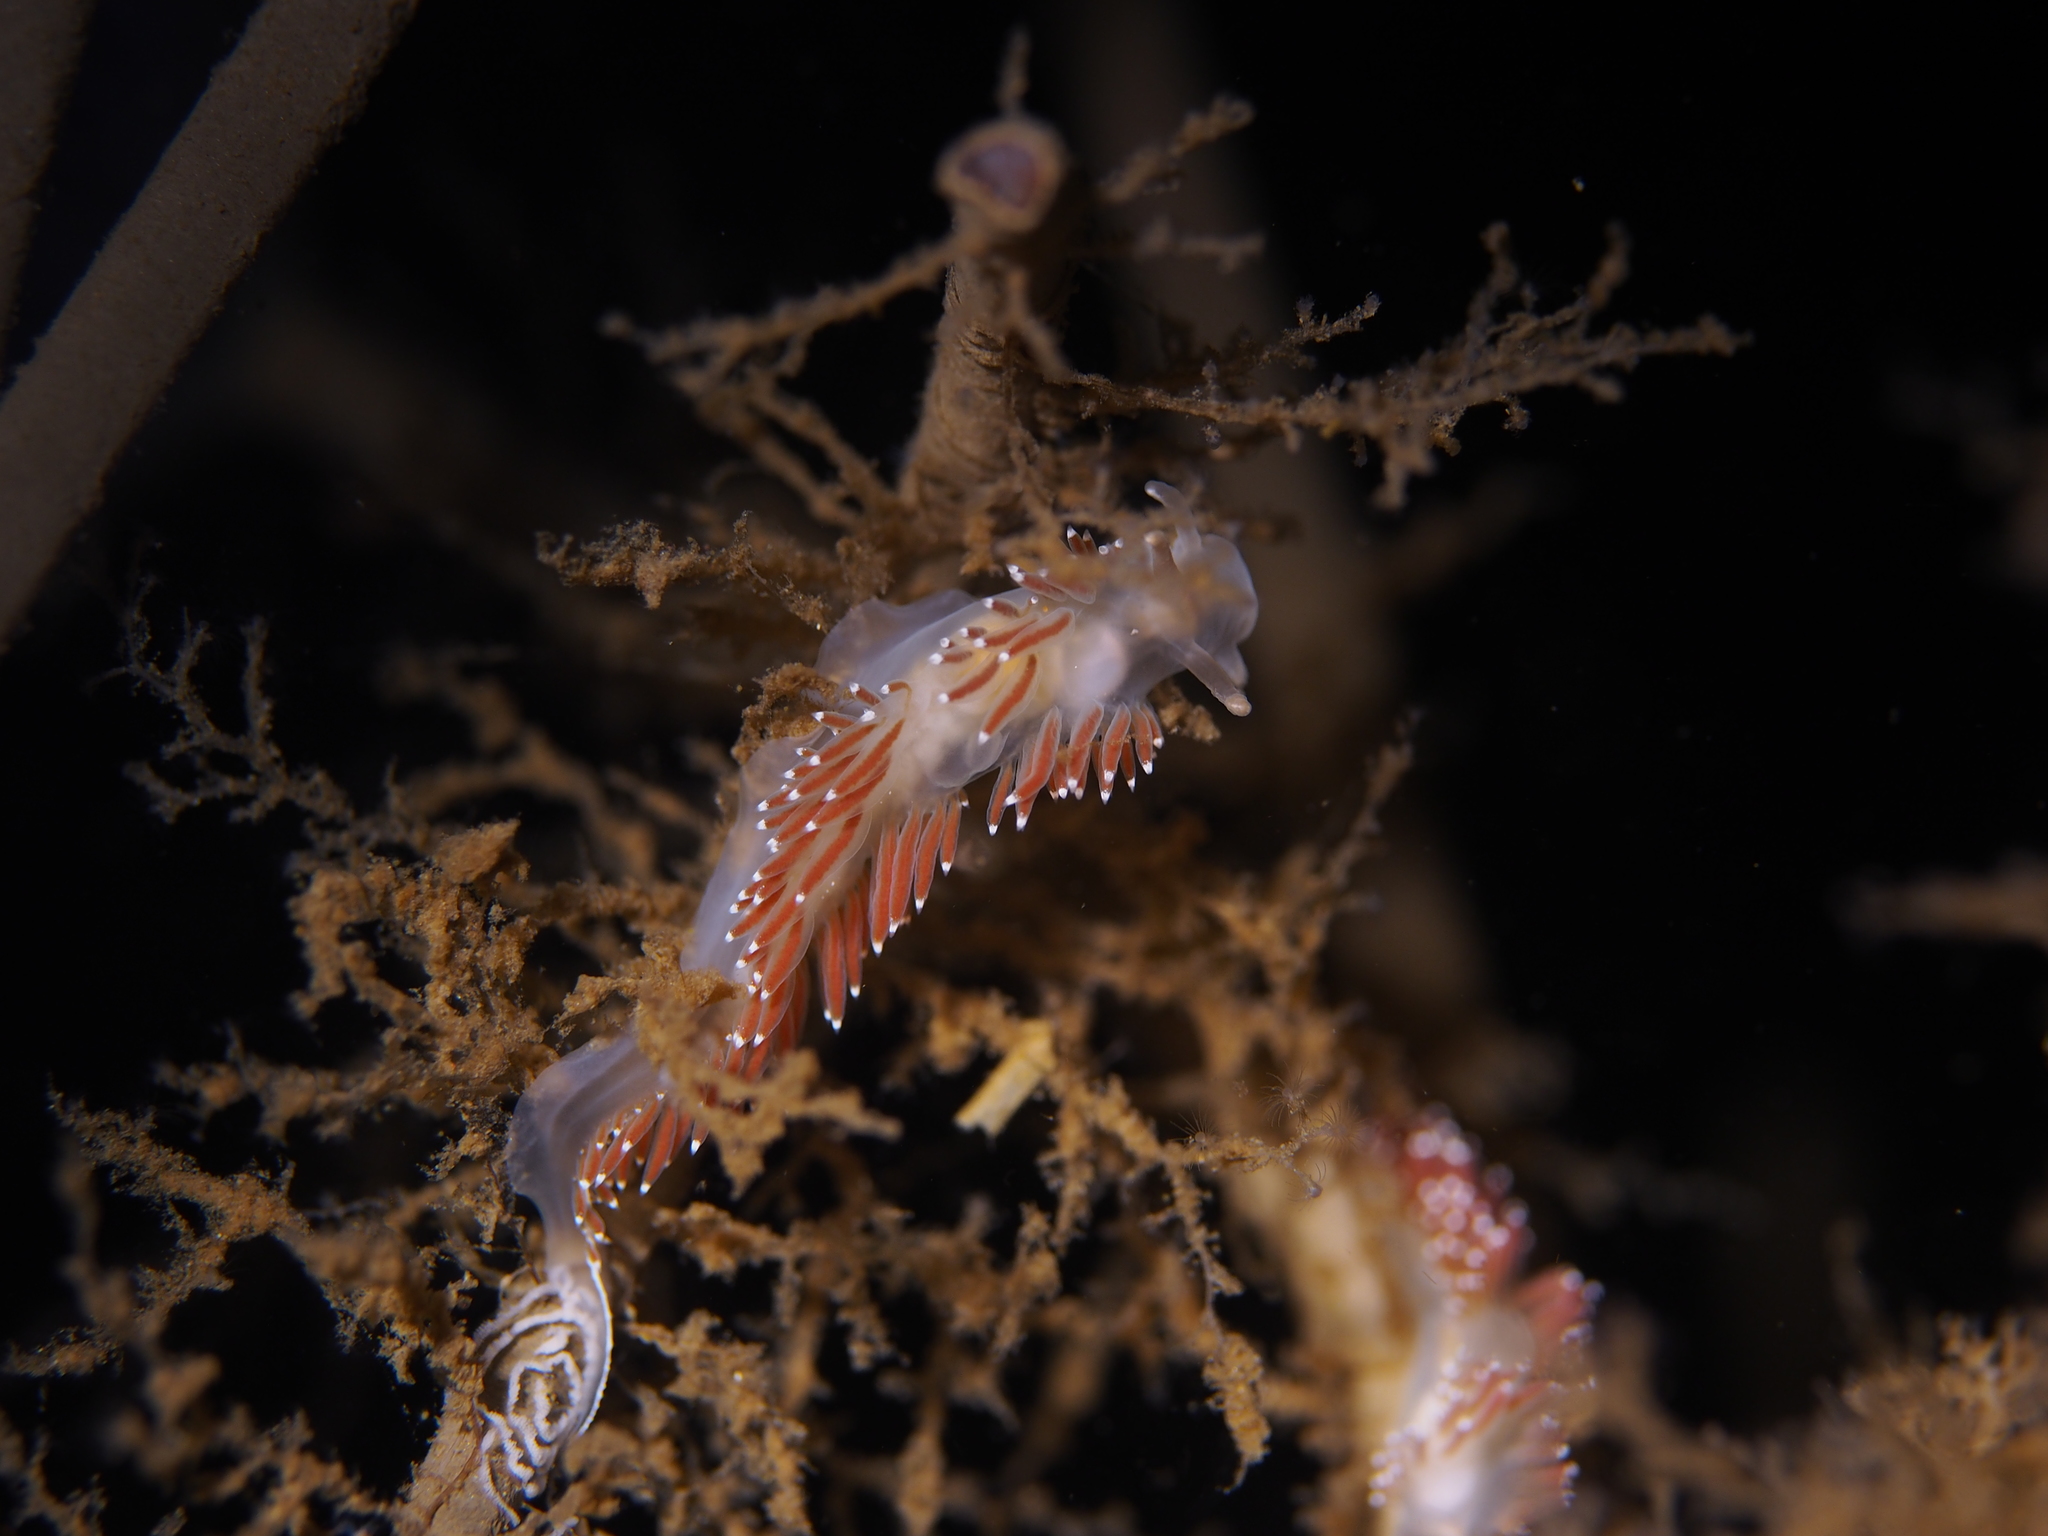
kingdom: Animalia
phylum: Mollusca
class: Gastropoda
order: Nudibranchia
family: Coryphellidae
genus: Coryphella
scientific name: Coryphella verrucosa
